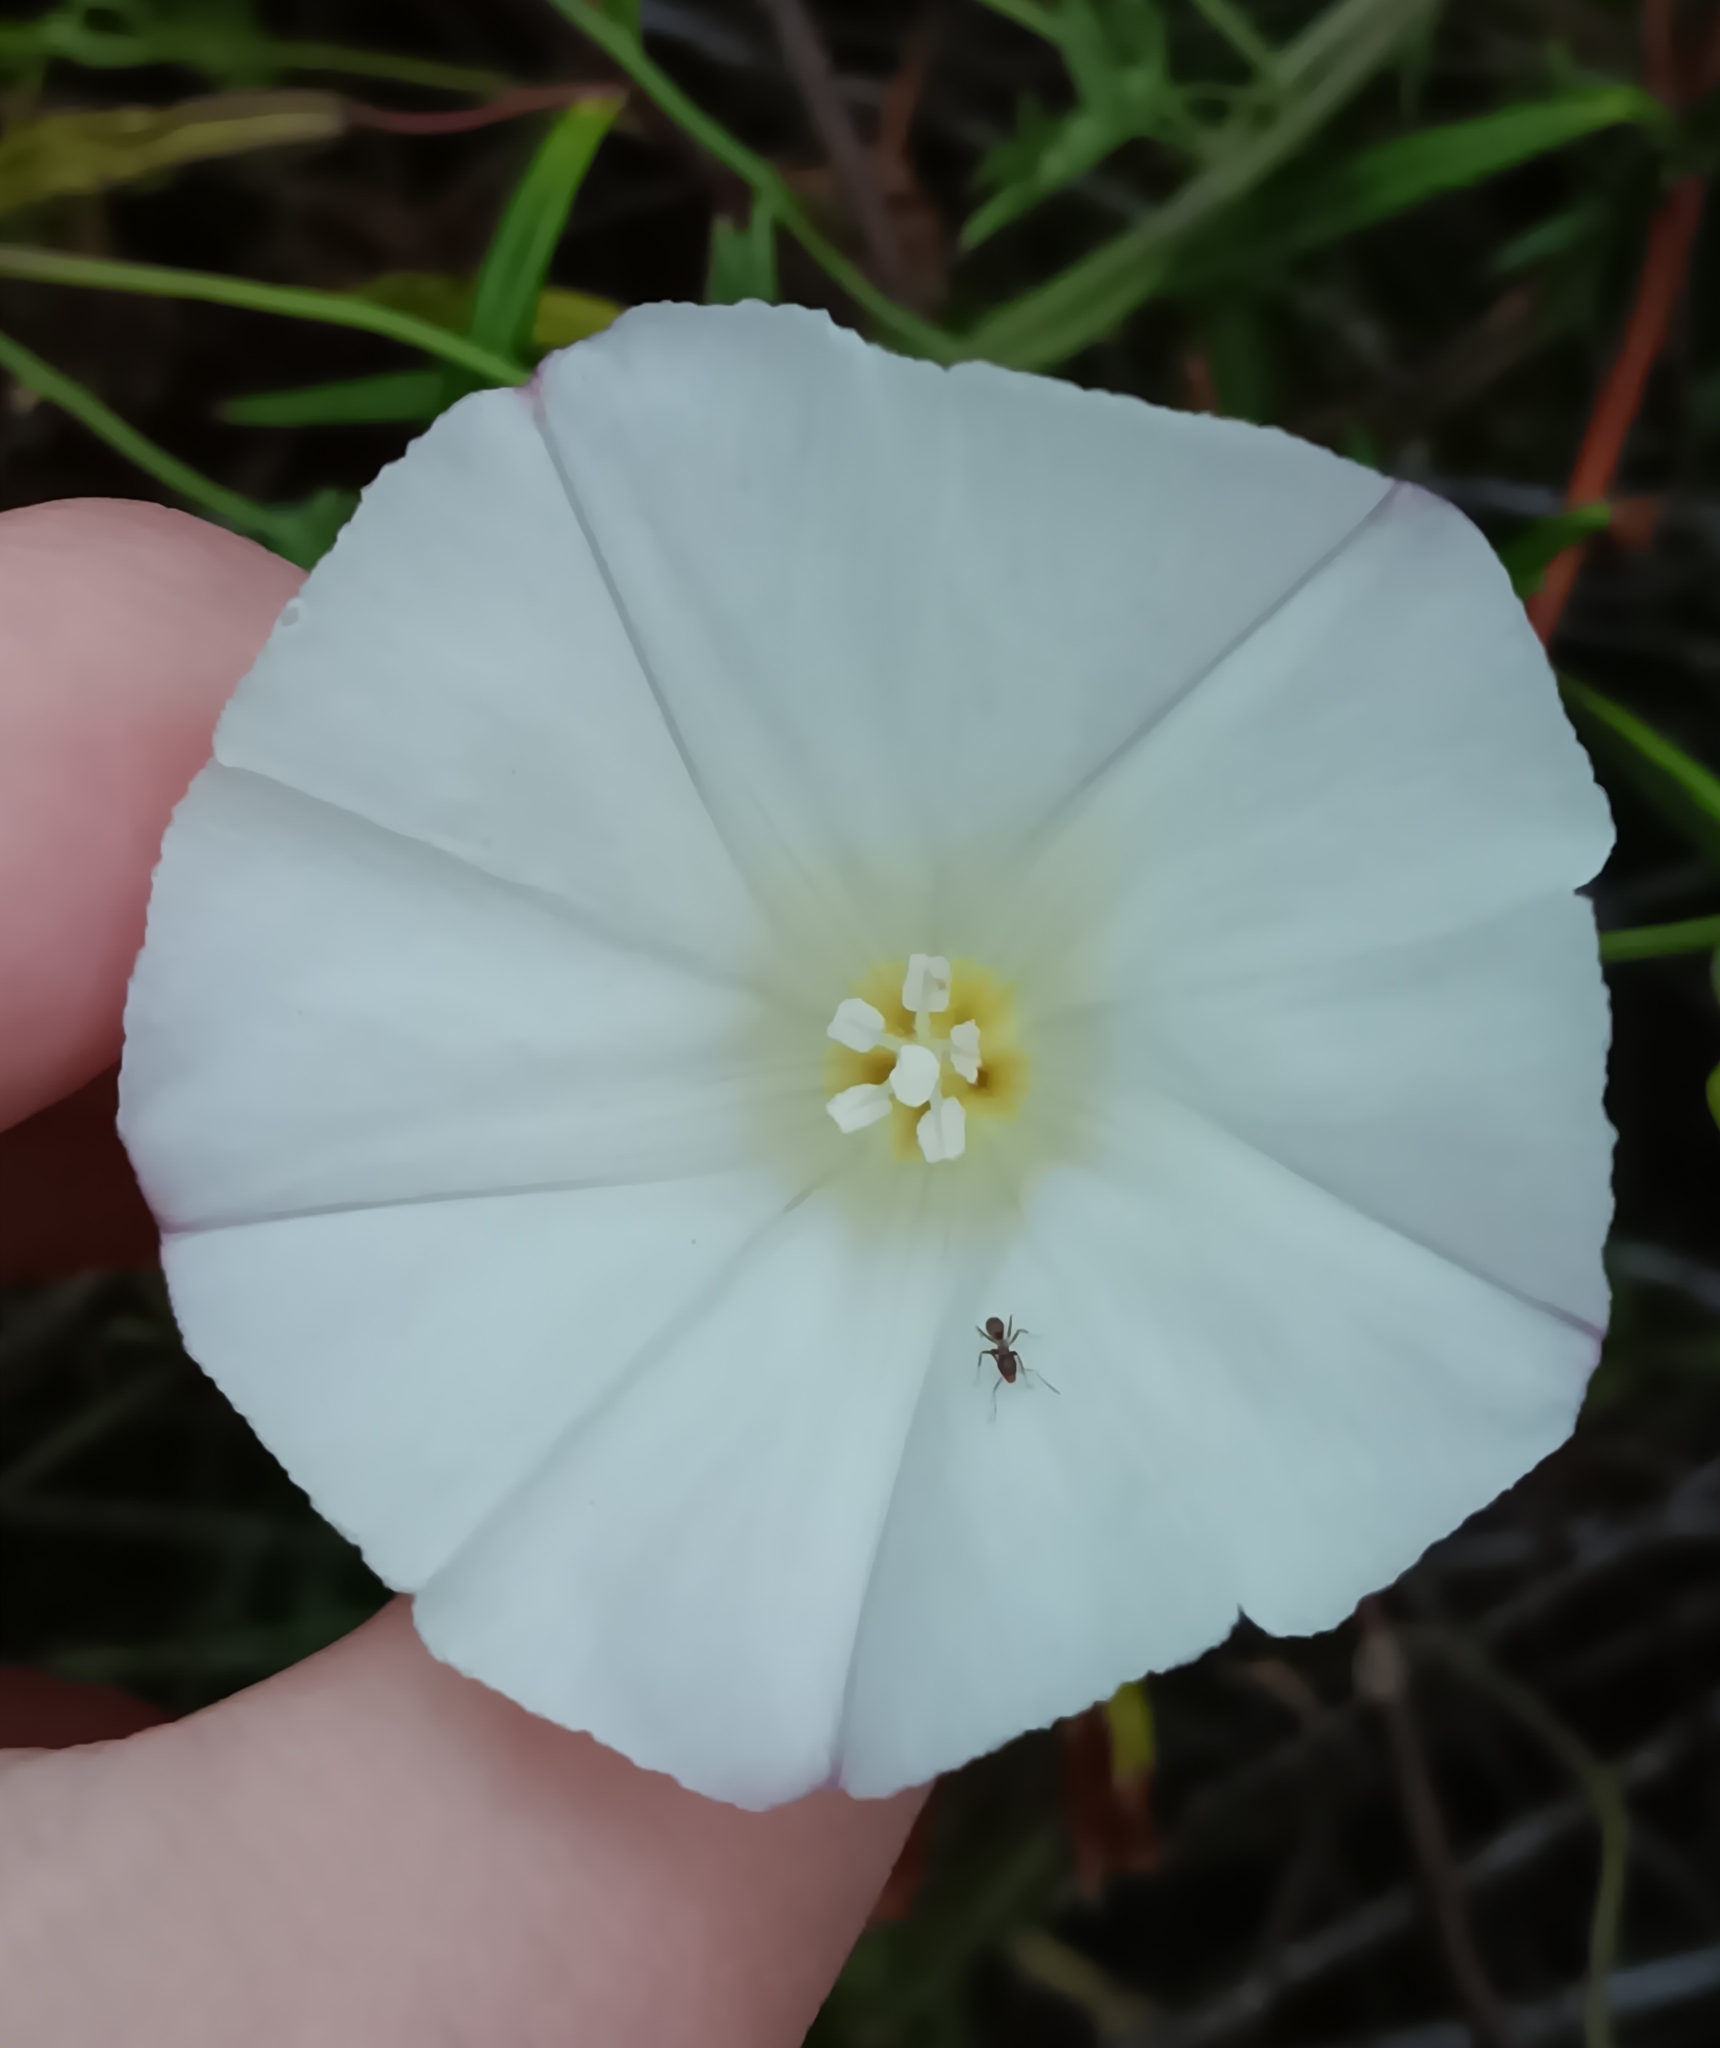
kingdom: Plantae
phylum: Tracheophyta
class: Magnoliopsida
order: Solanales
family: Convolvulaceae
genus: Calystegia
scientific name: Calystegia macrostegia
